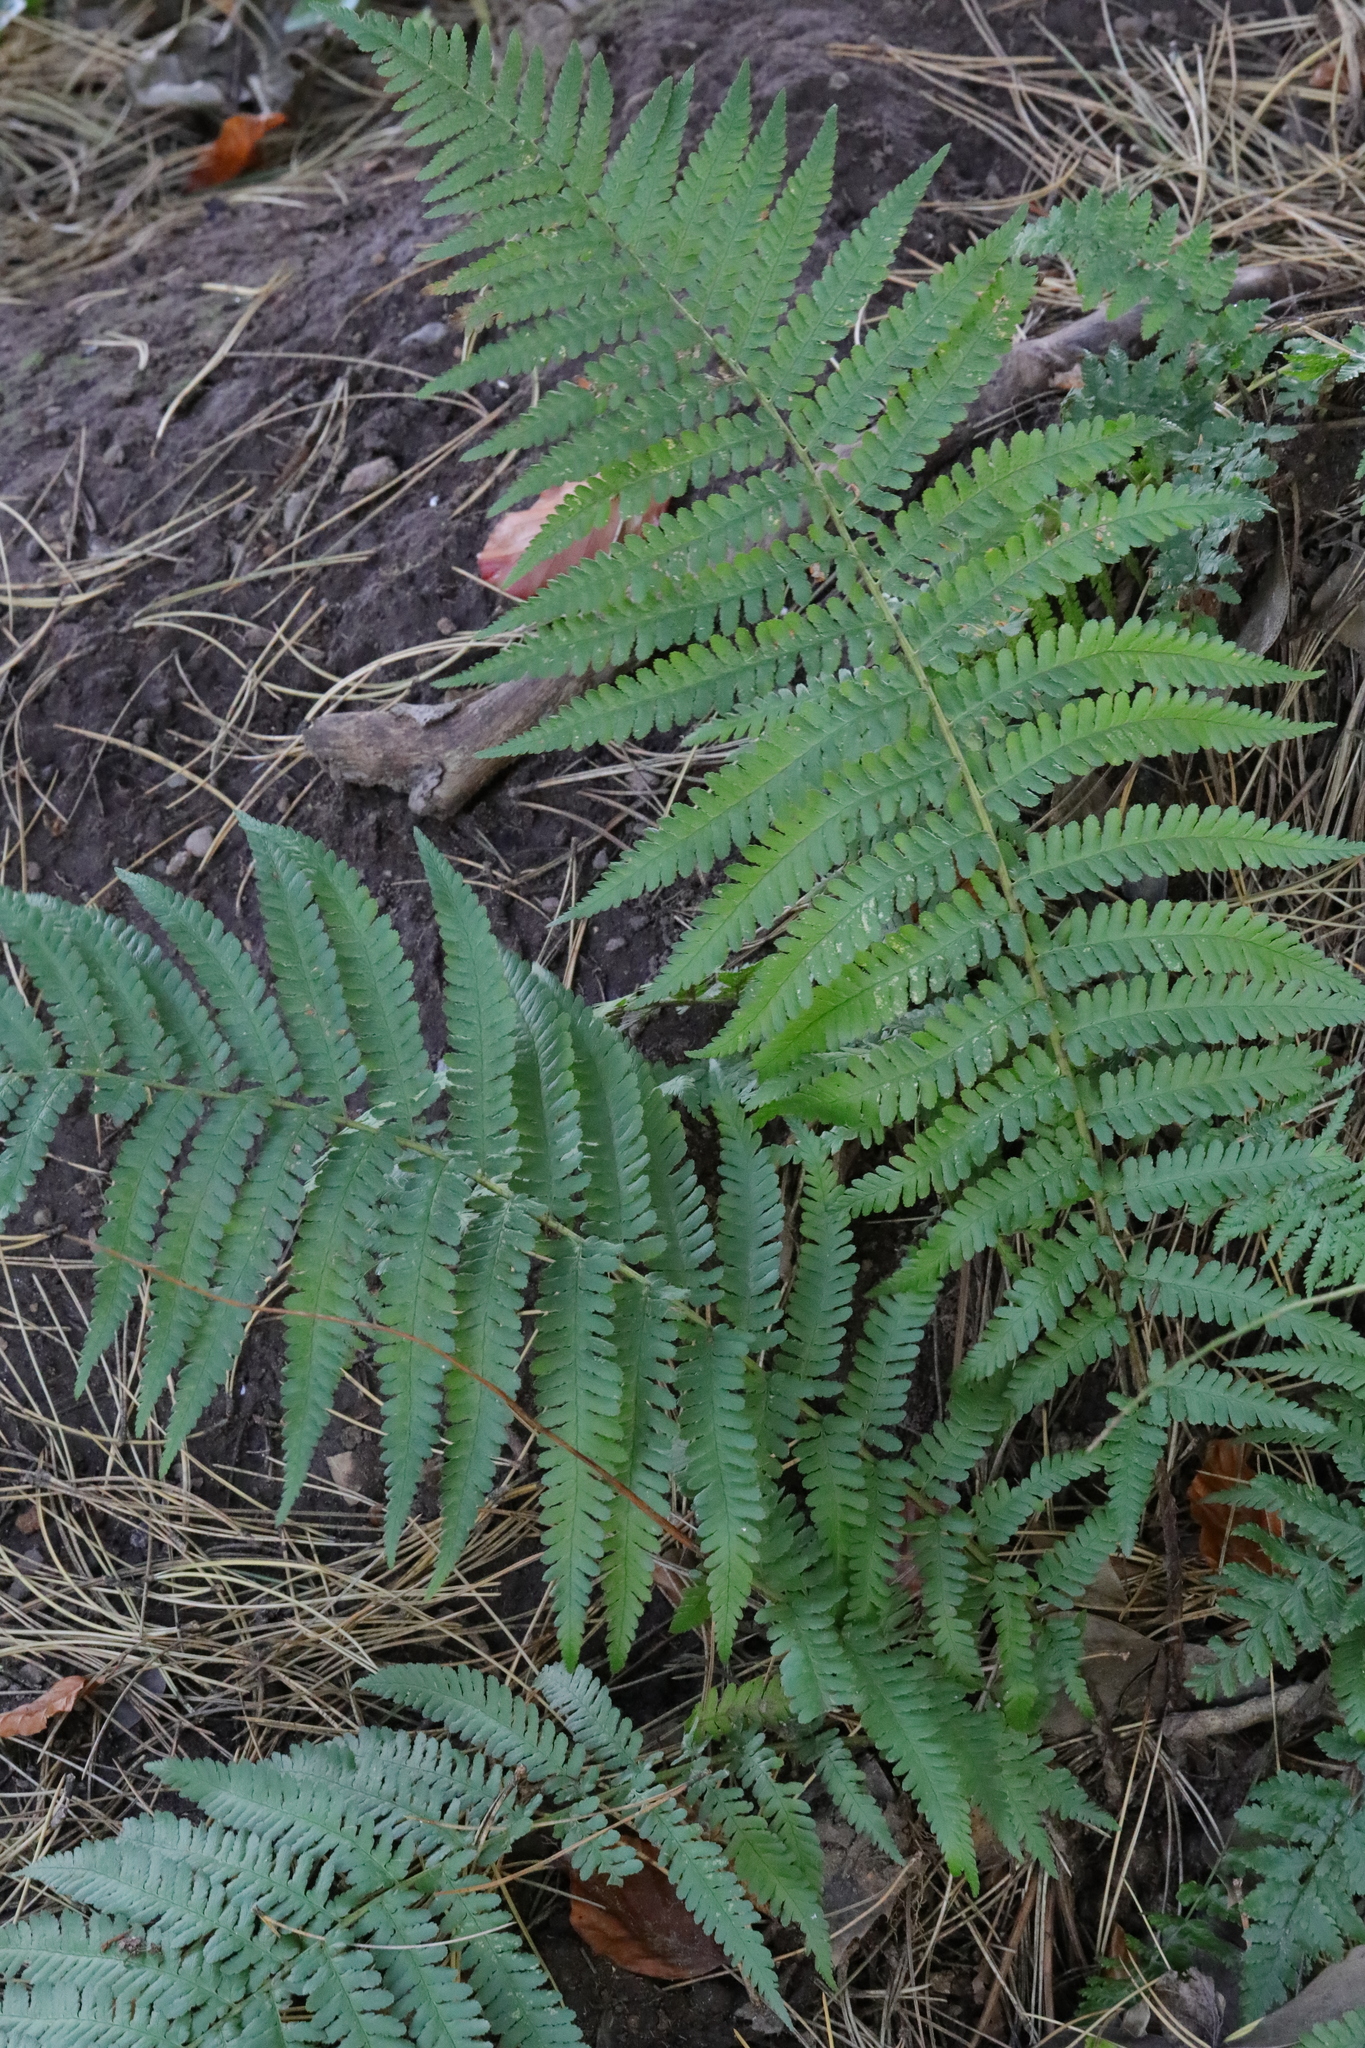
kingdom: Plantae
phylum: Tracheophyta
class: Polypodiopsida
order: Polypodiales
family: Dryopteridaceae
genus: Dryopteris
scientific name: Dryopteris filix-mas
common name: Male fern
